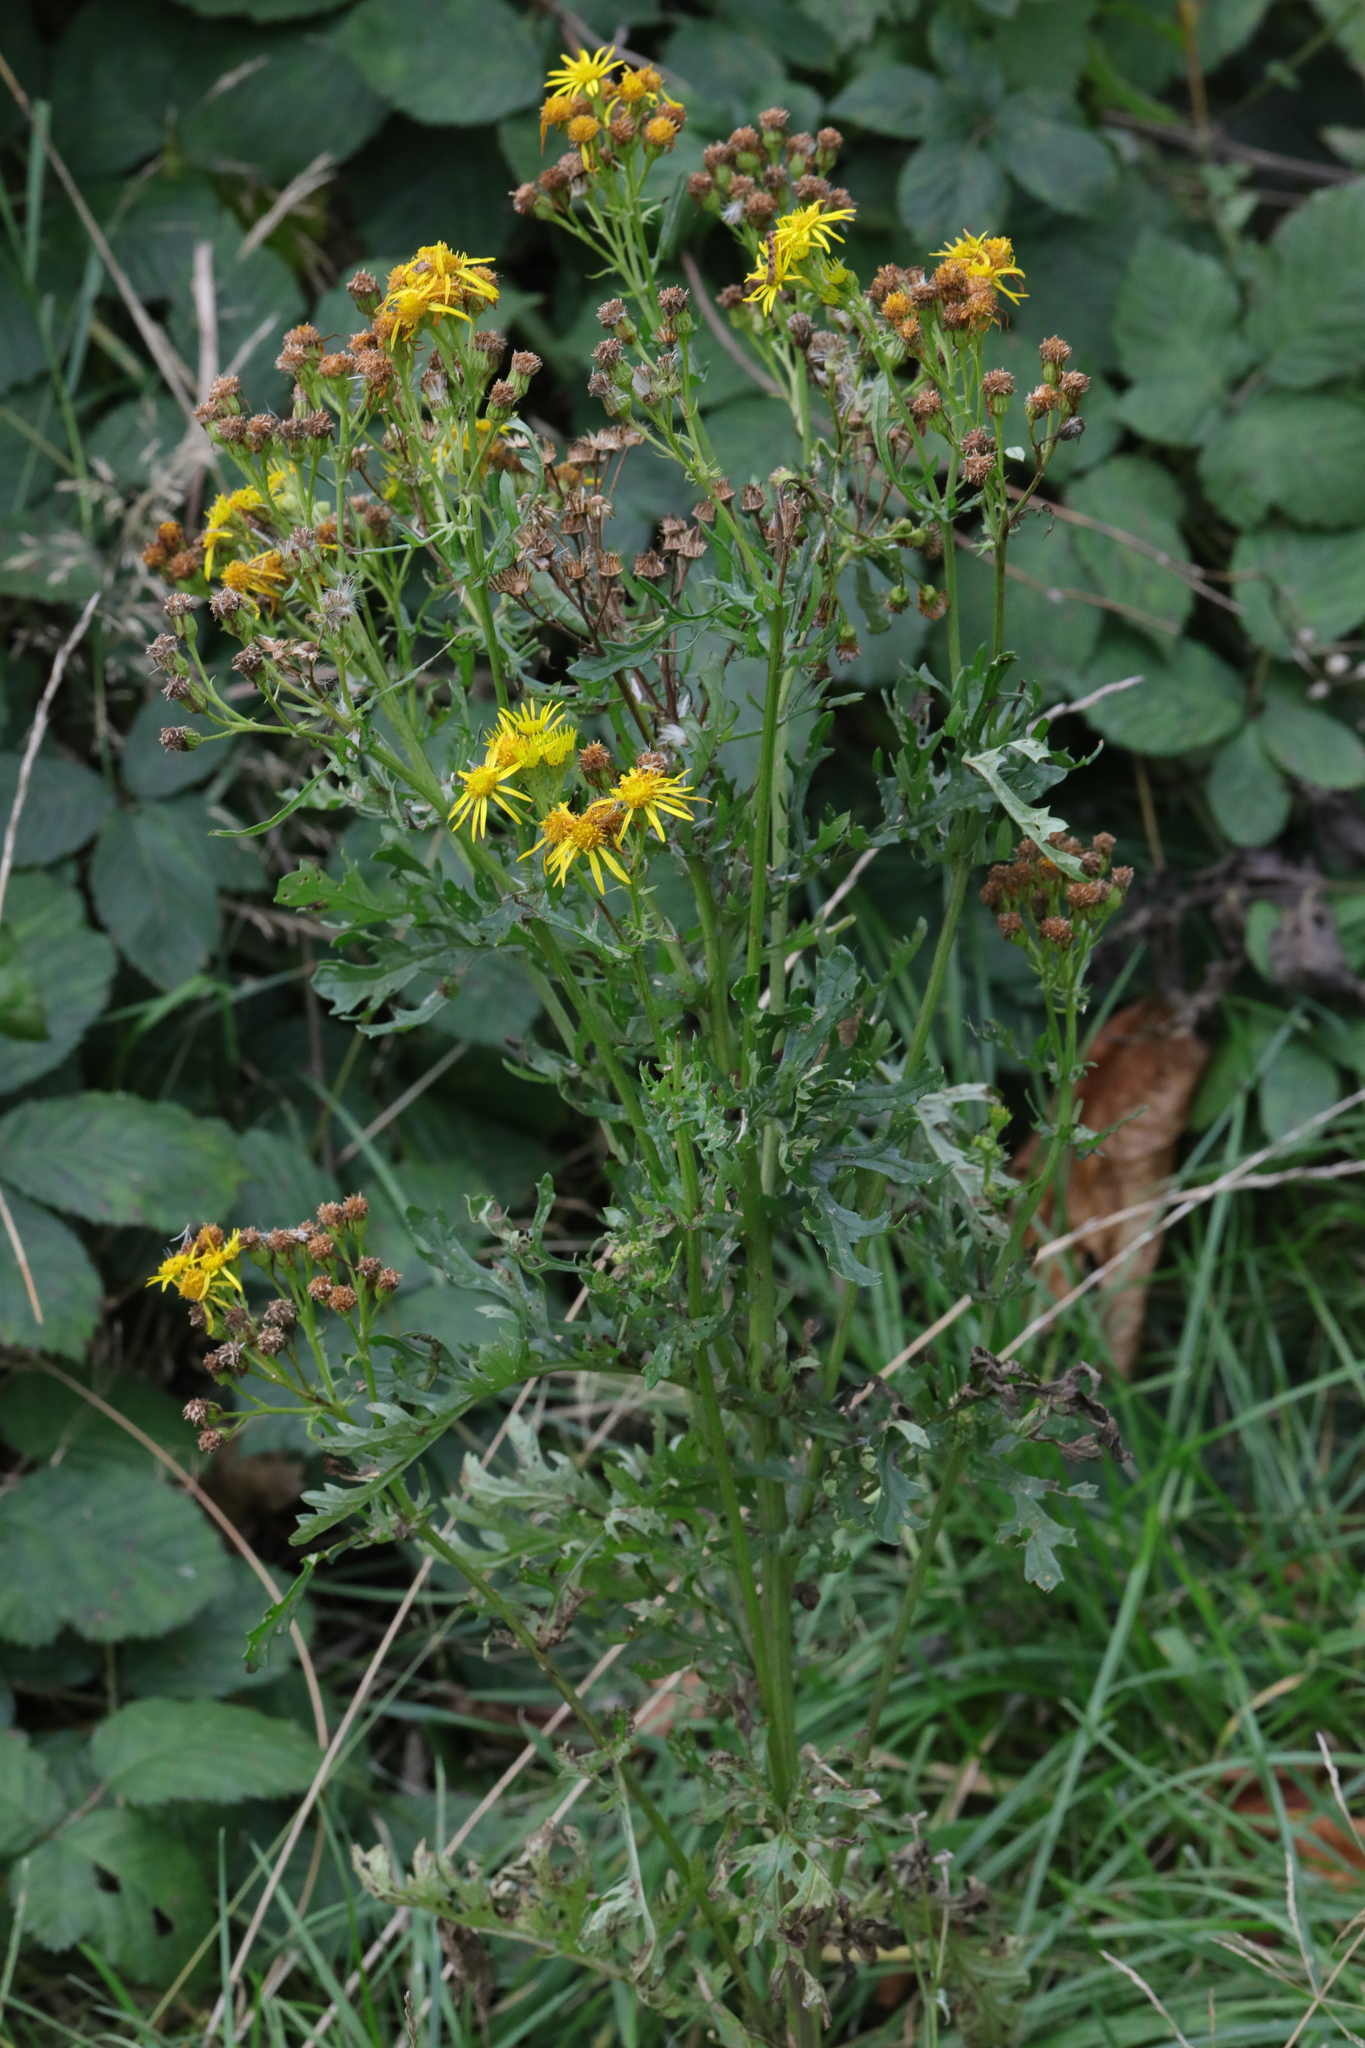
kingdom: Plantae
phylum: Tracheophyta
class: Magnoliopsida
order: Asterales
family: Asteraceae
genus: Jacobaea
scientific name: Jacobaea vulgaris
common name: Stinking willie
